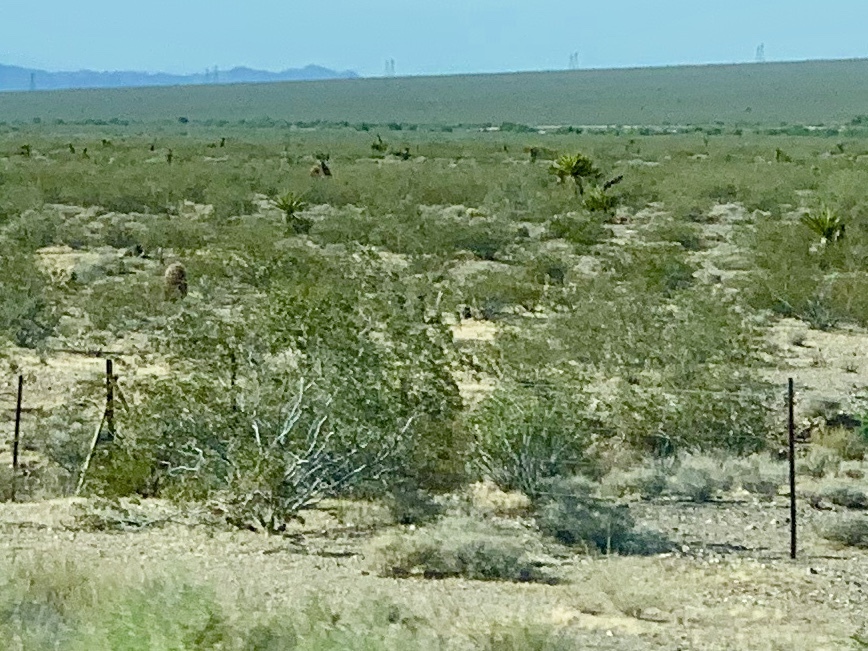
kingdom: Plantae
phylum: Tracheophyta
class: Magnoliopsida
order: Zygophyllales
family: Zygophyllaceae
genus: Larrea
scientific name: Larrea tridentata
